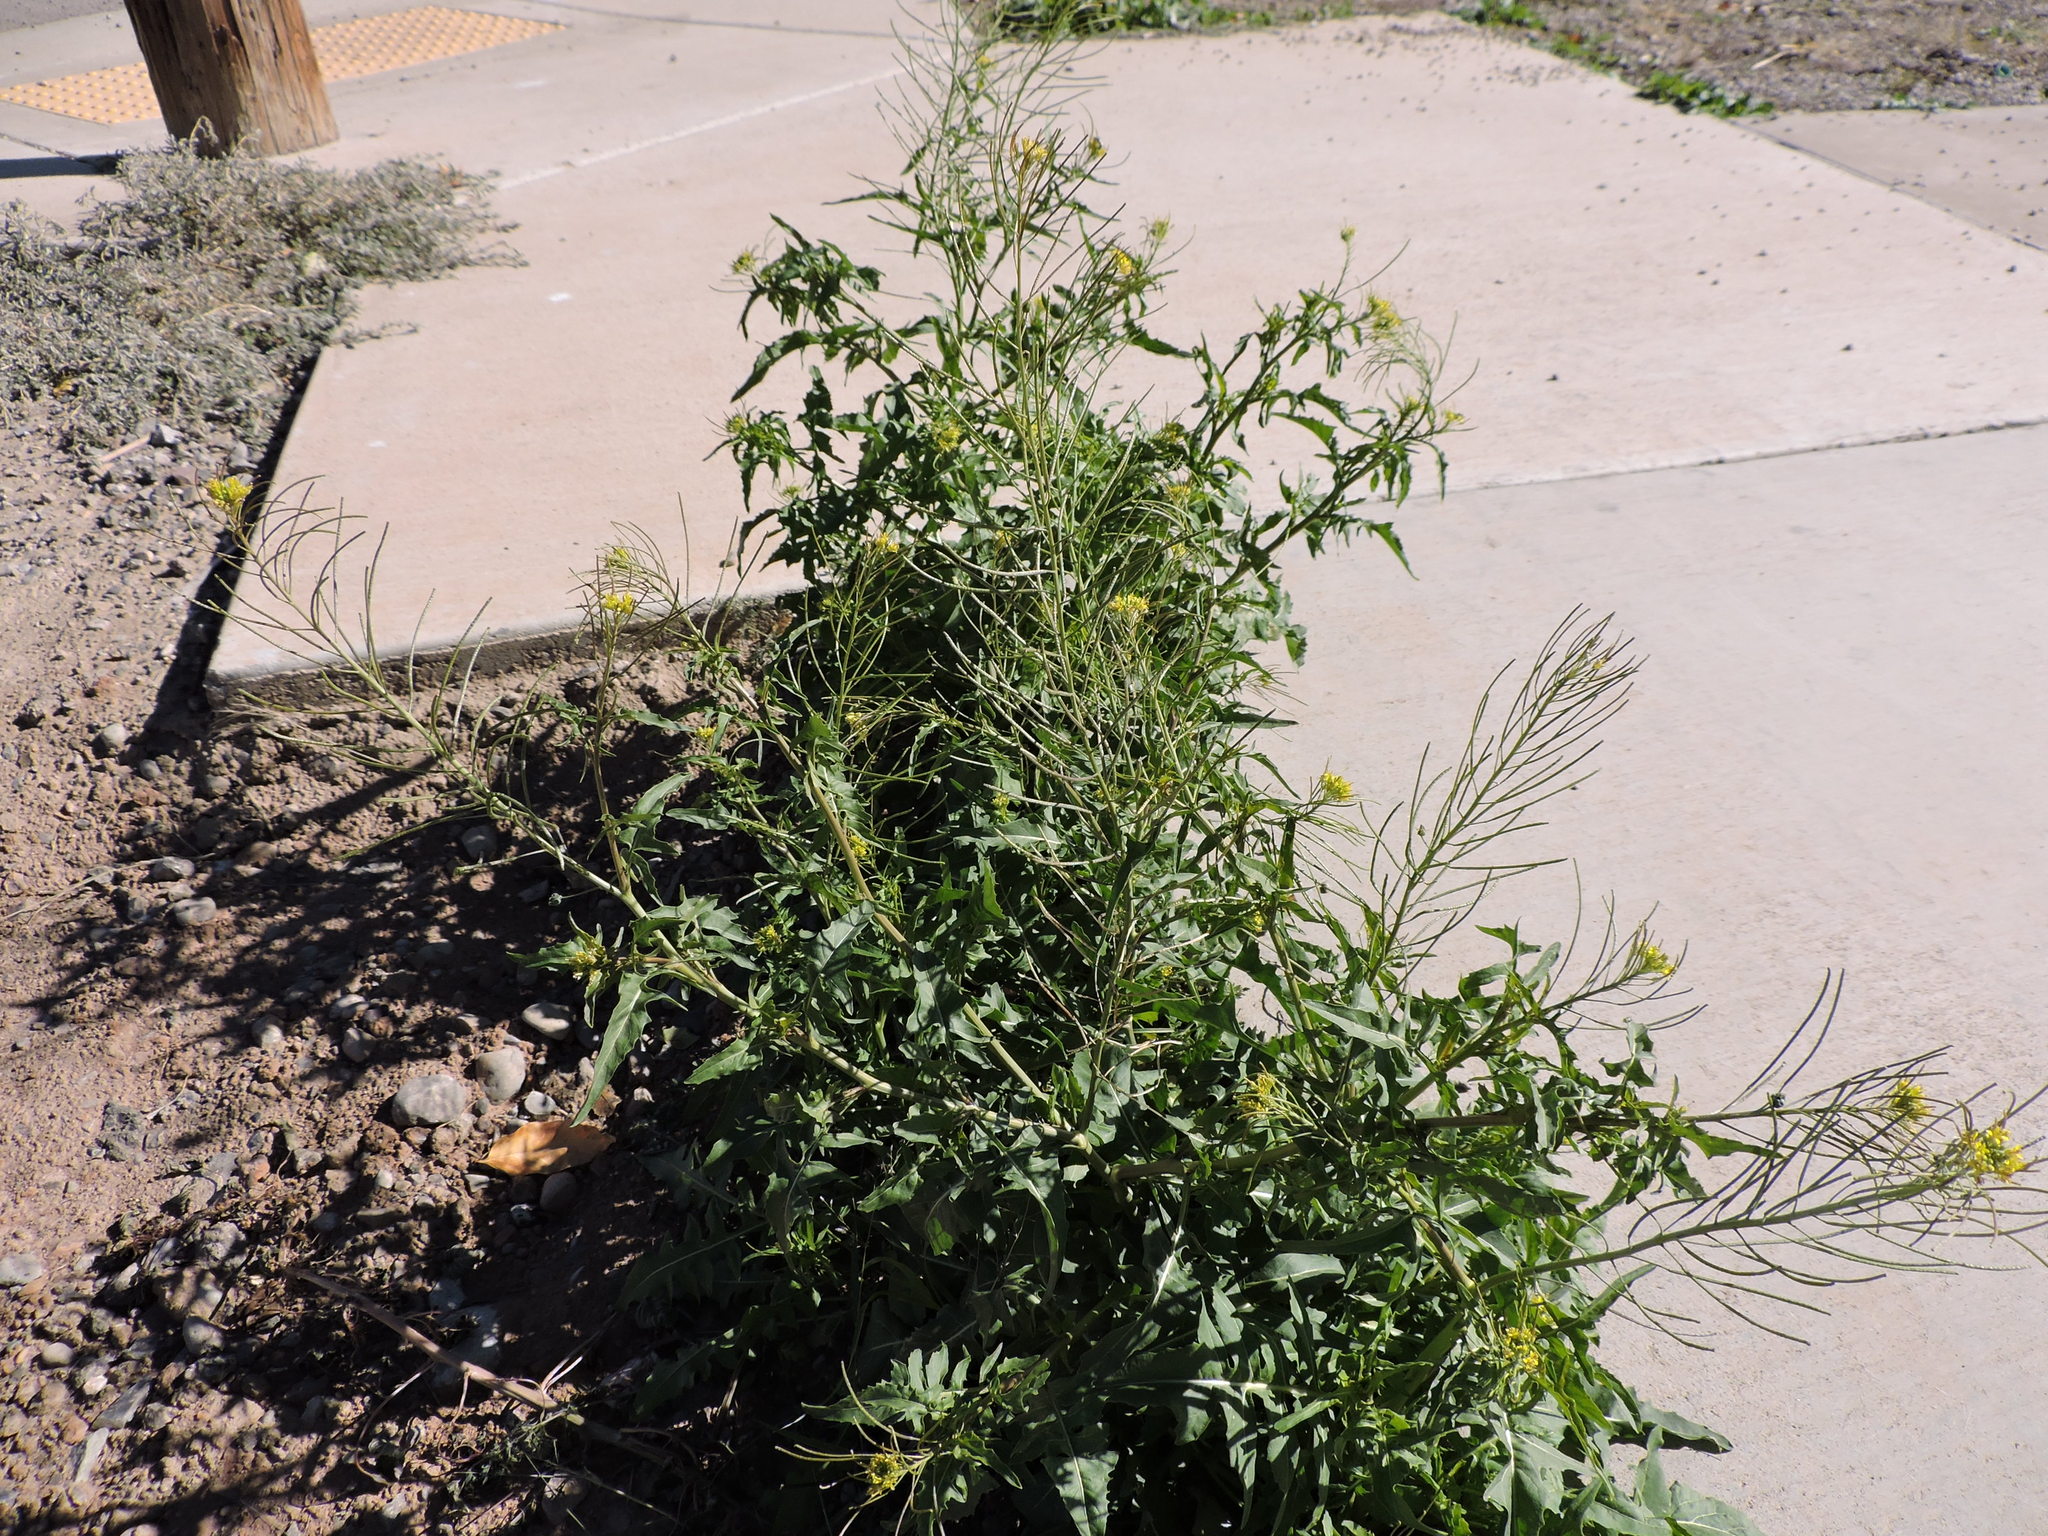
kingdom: Plantae
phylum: Tracheophyta
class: Magnoliopsida
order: Brassicales
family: Brassicaceae
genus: Sisymbrium
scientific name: Sisymbrium irio
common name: London rocket
